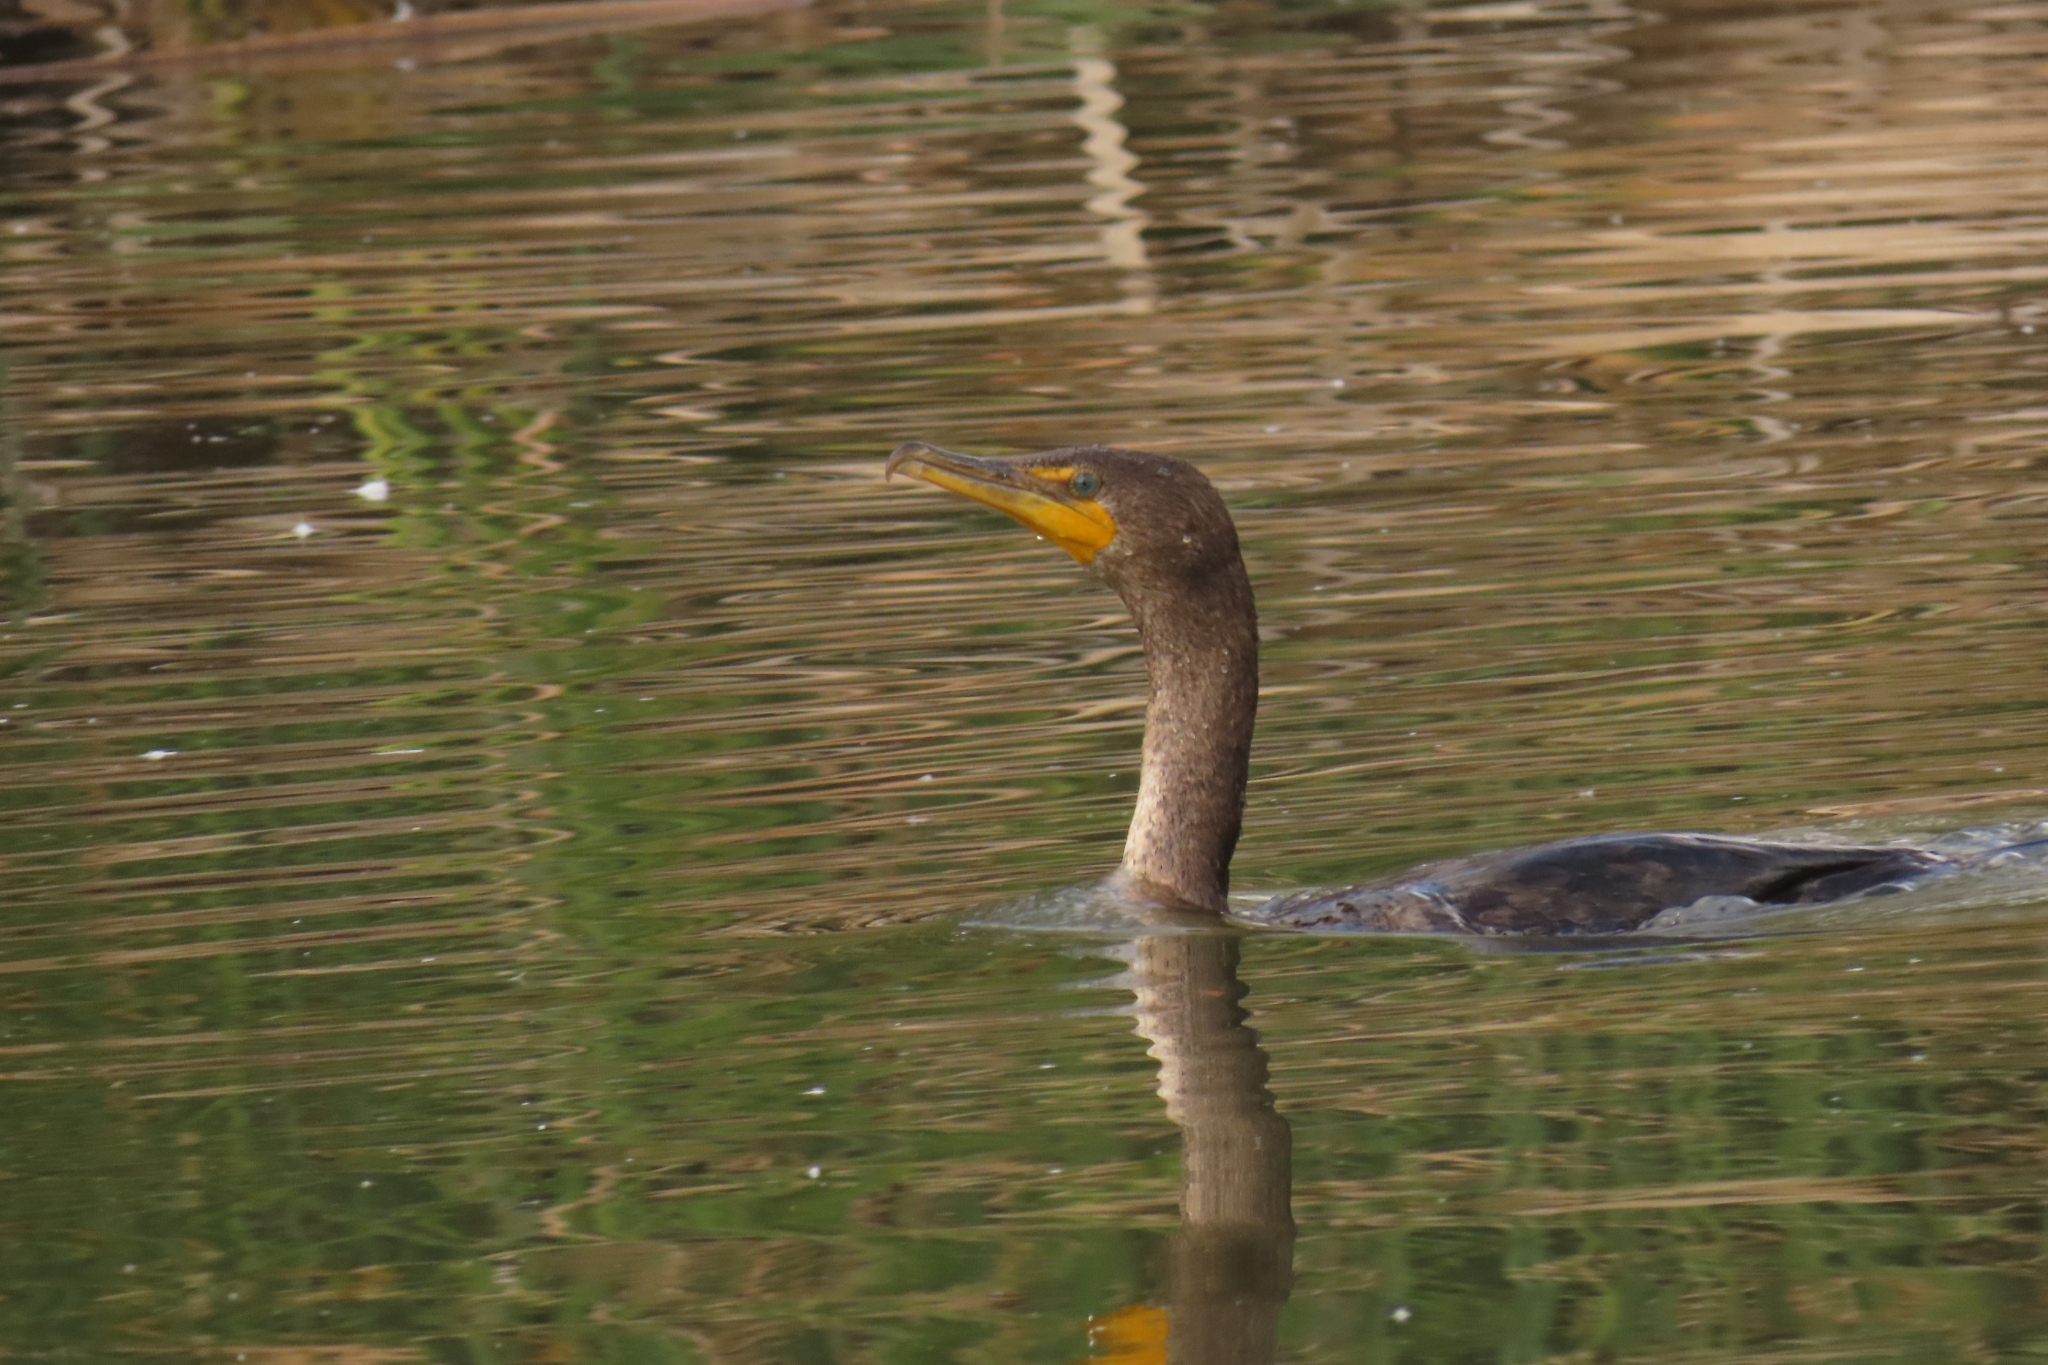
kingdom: Animalia
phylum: Chordata
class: Aves
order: Suliformes
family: Phalacrocoracidae
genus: Phalacrocorax
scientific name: Phalacrocorax auritus
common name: Double-crested cormorant
